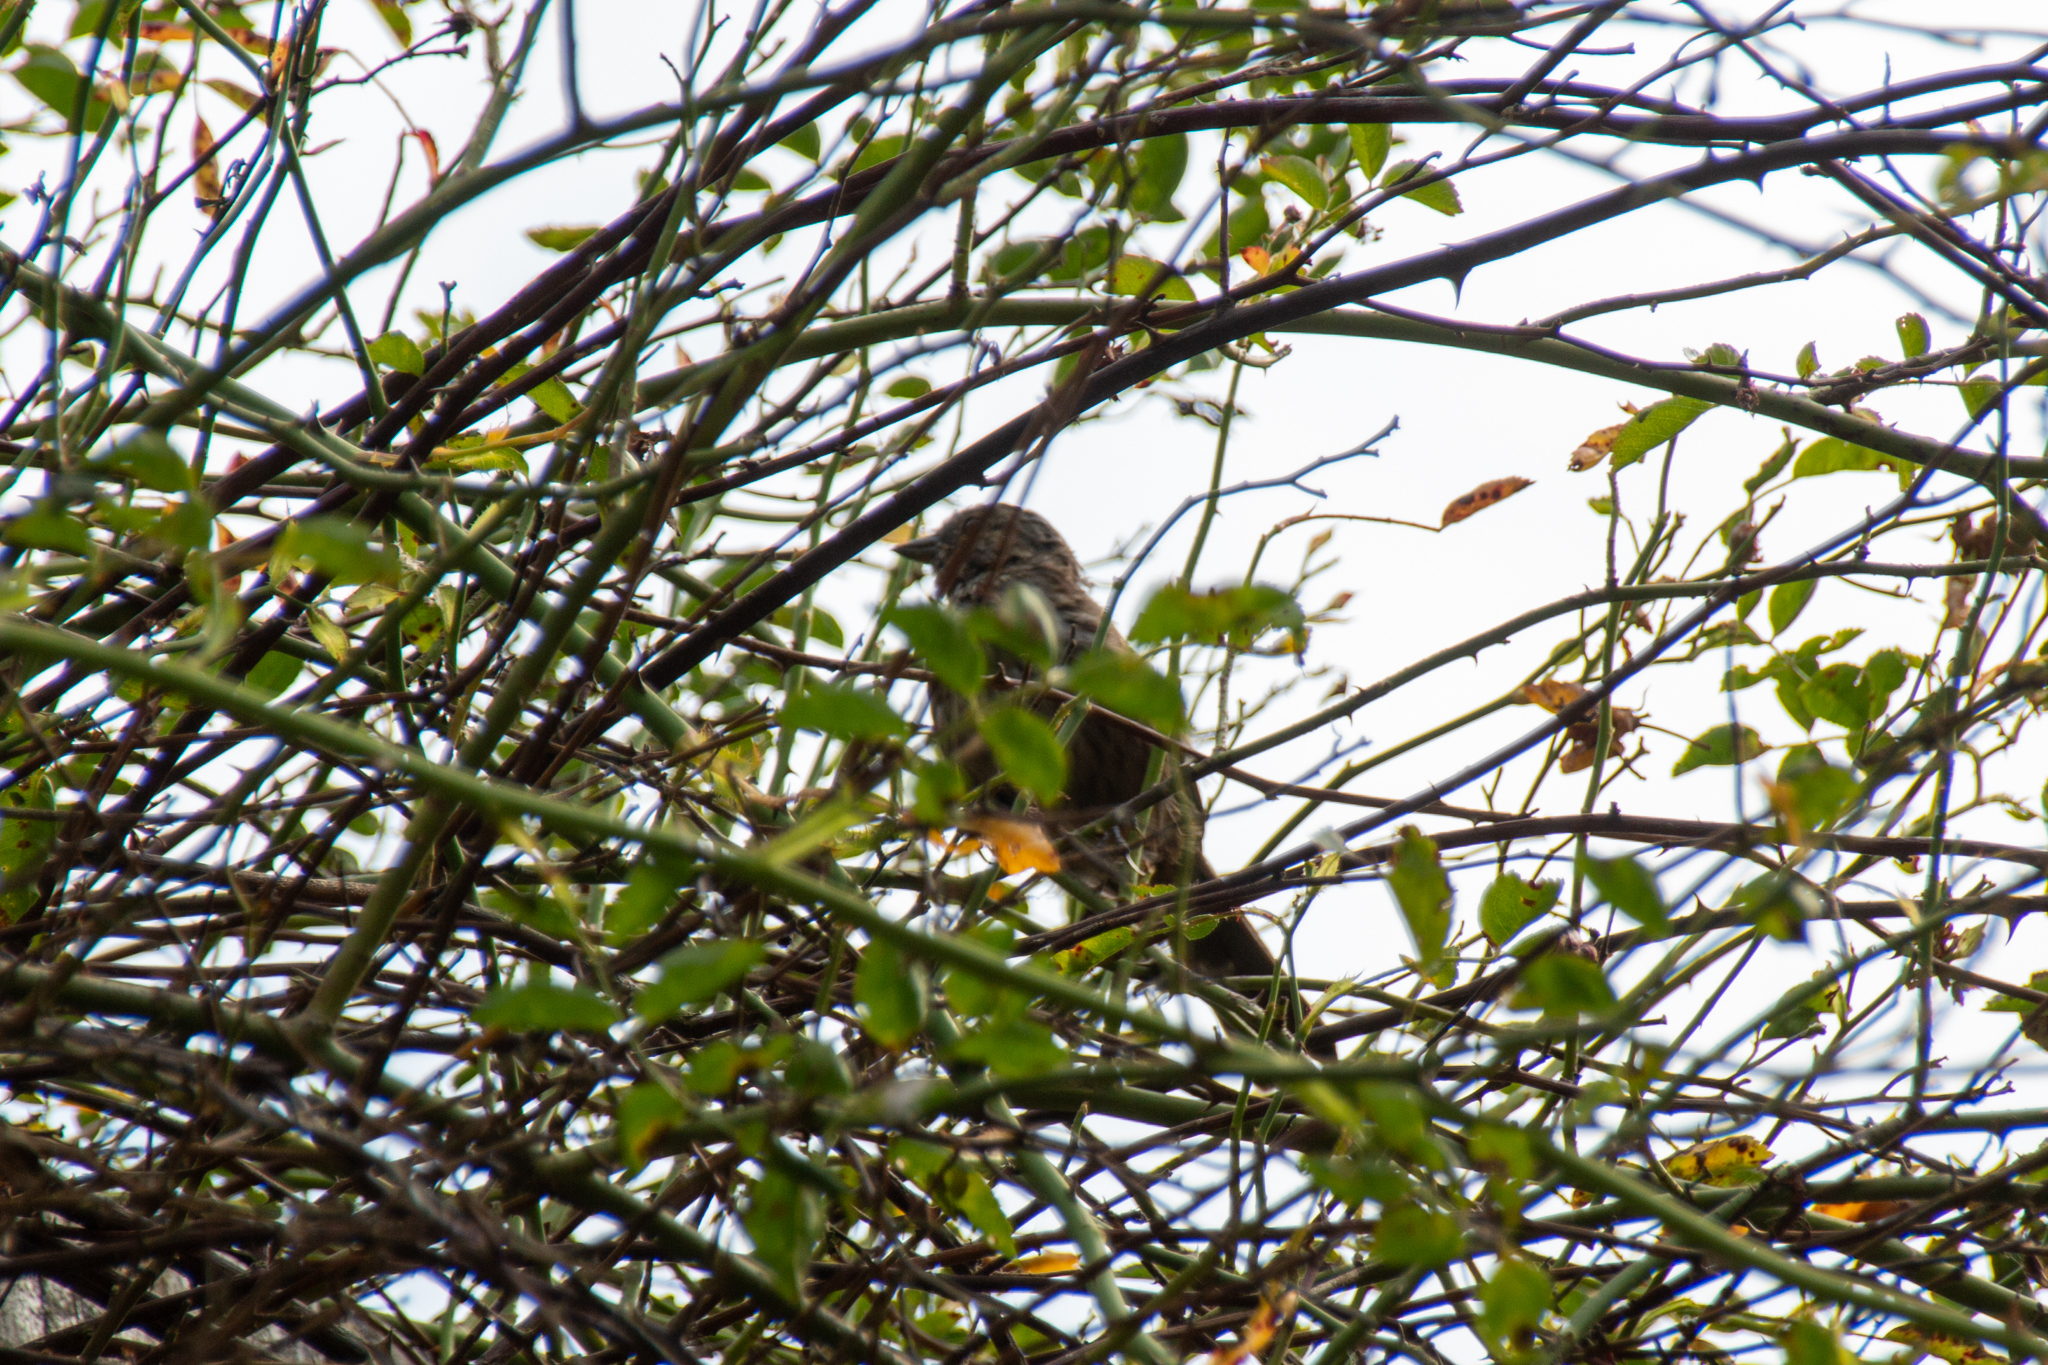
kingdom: Animalia
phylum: Chordata
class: Aves
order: Passeriformes
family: Passerellidae
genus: Melospiza
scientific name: Melospiza melodia
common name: Song sparrow
